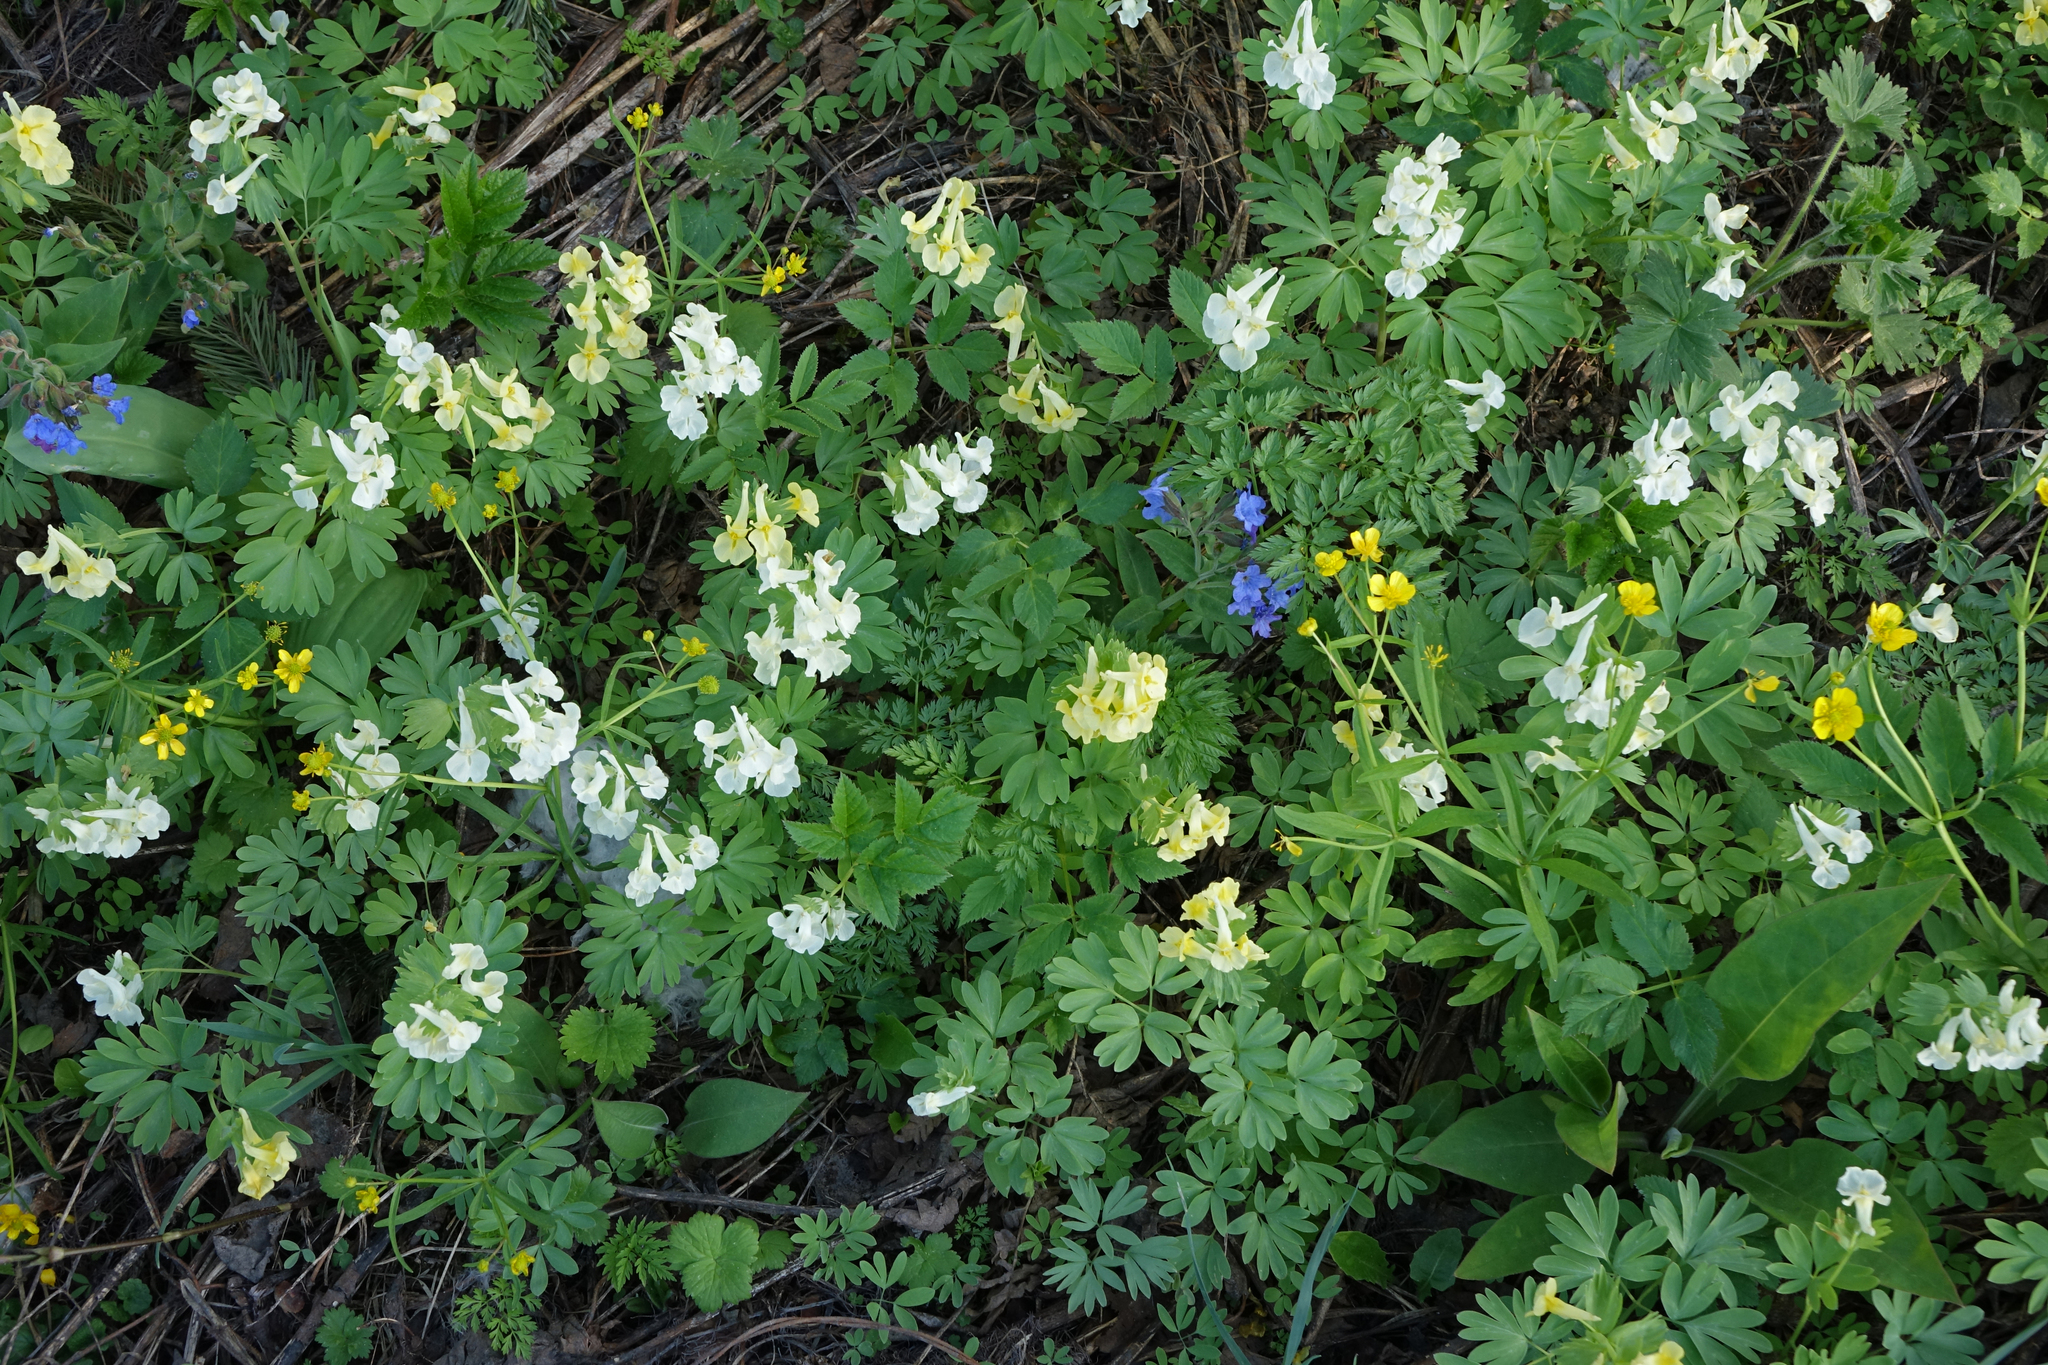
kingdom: Plantae
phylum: Tracheophyta
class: Magnoliopsida
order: Ranunculales
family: Papaveraceae
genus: Corydalis
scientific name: Corydalis bracteata
